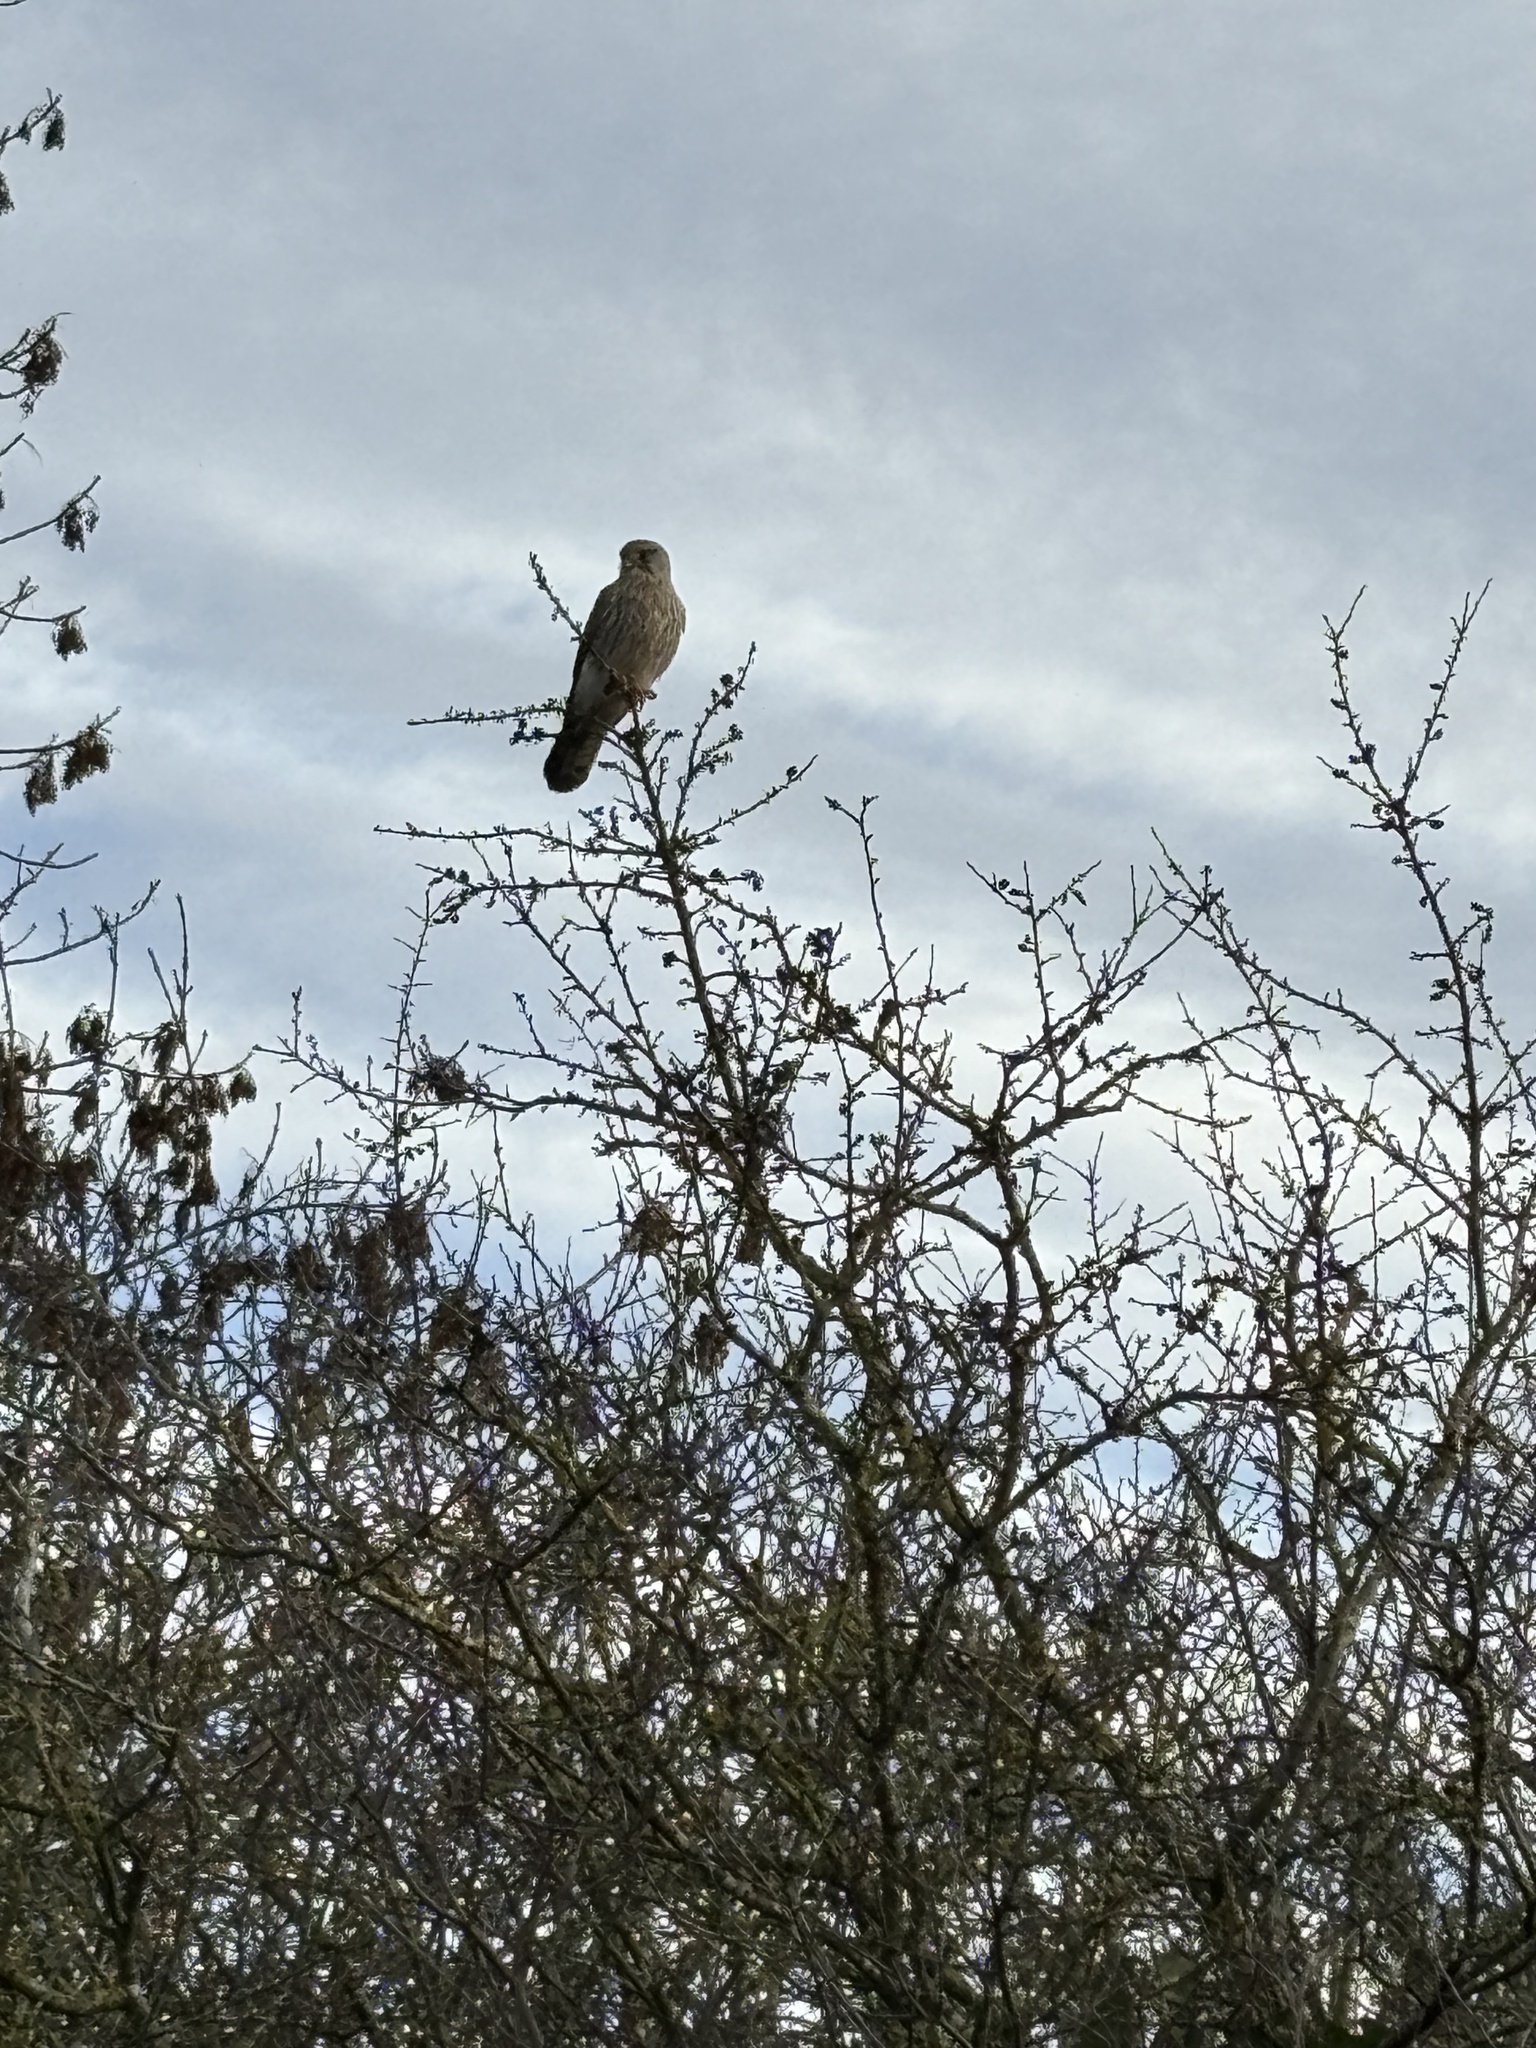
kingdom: Animalia
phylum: Chordata
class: Aves
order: Falconiformes
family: Falconidae
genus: Falco
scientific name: Falco tinnunculus
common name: Common kestrel
